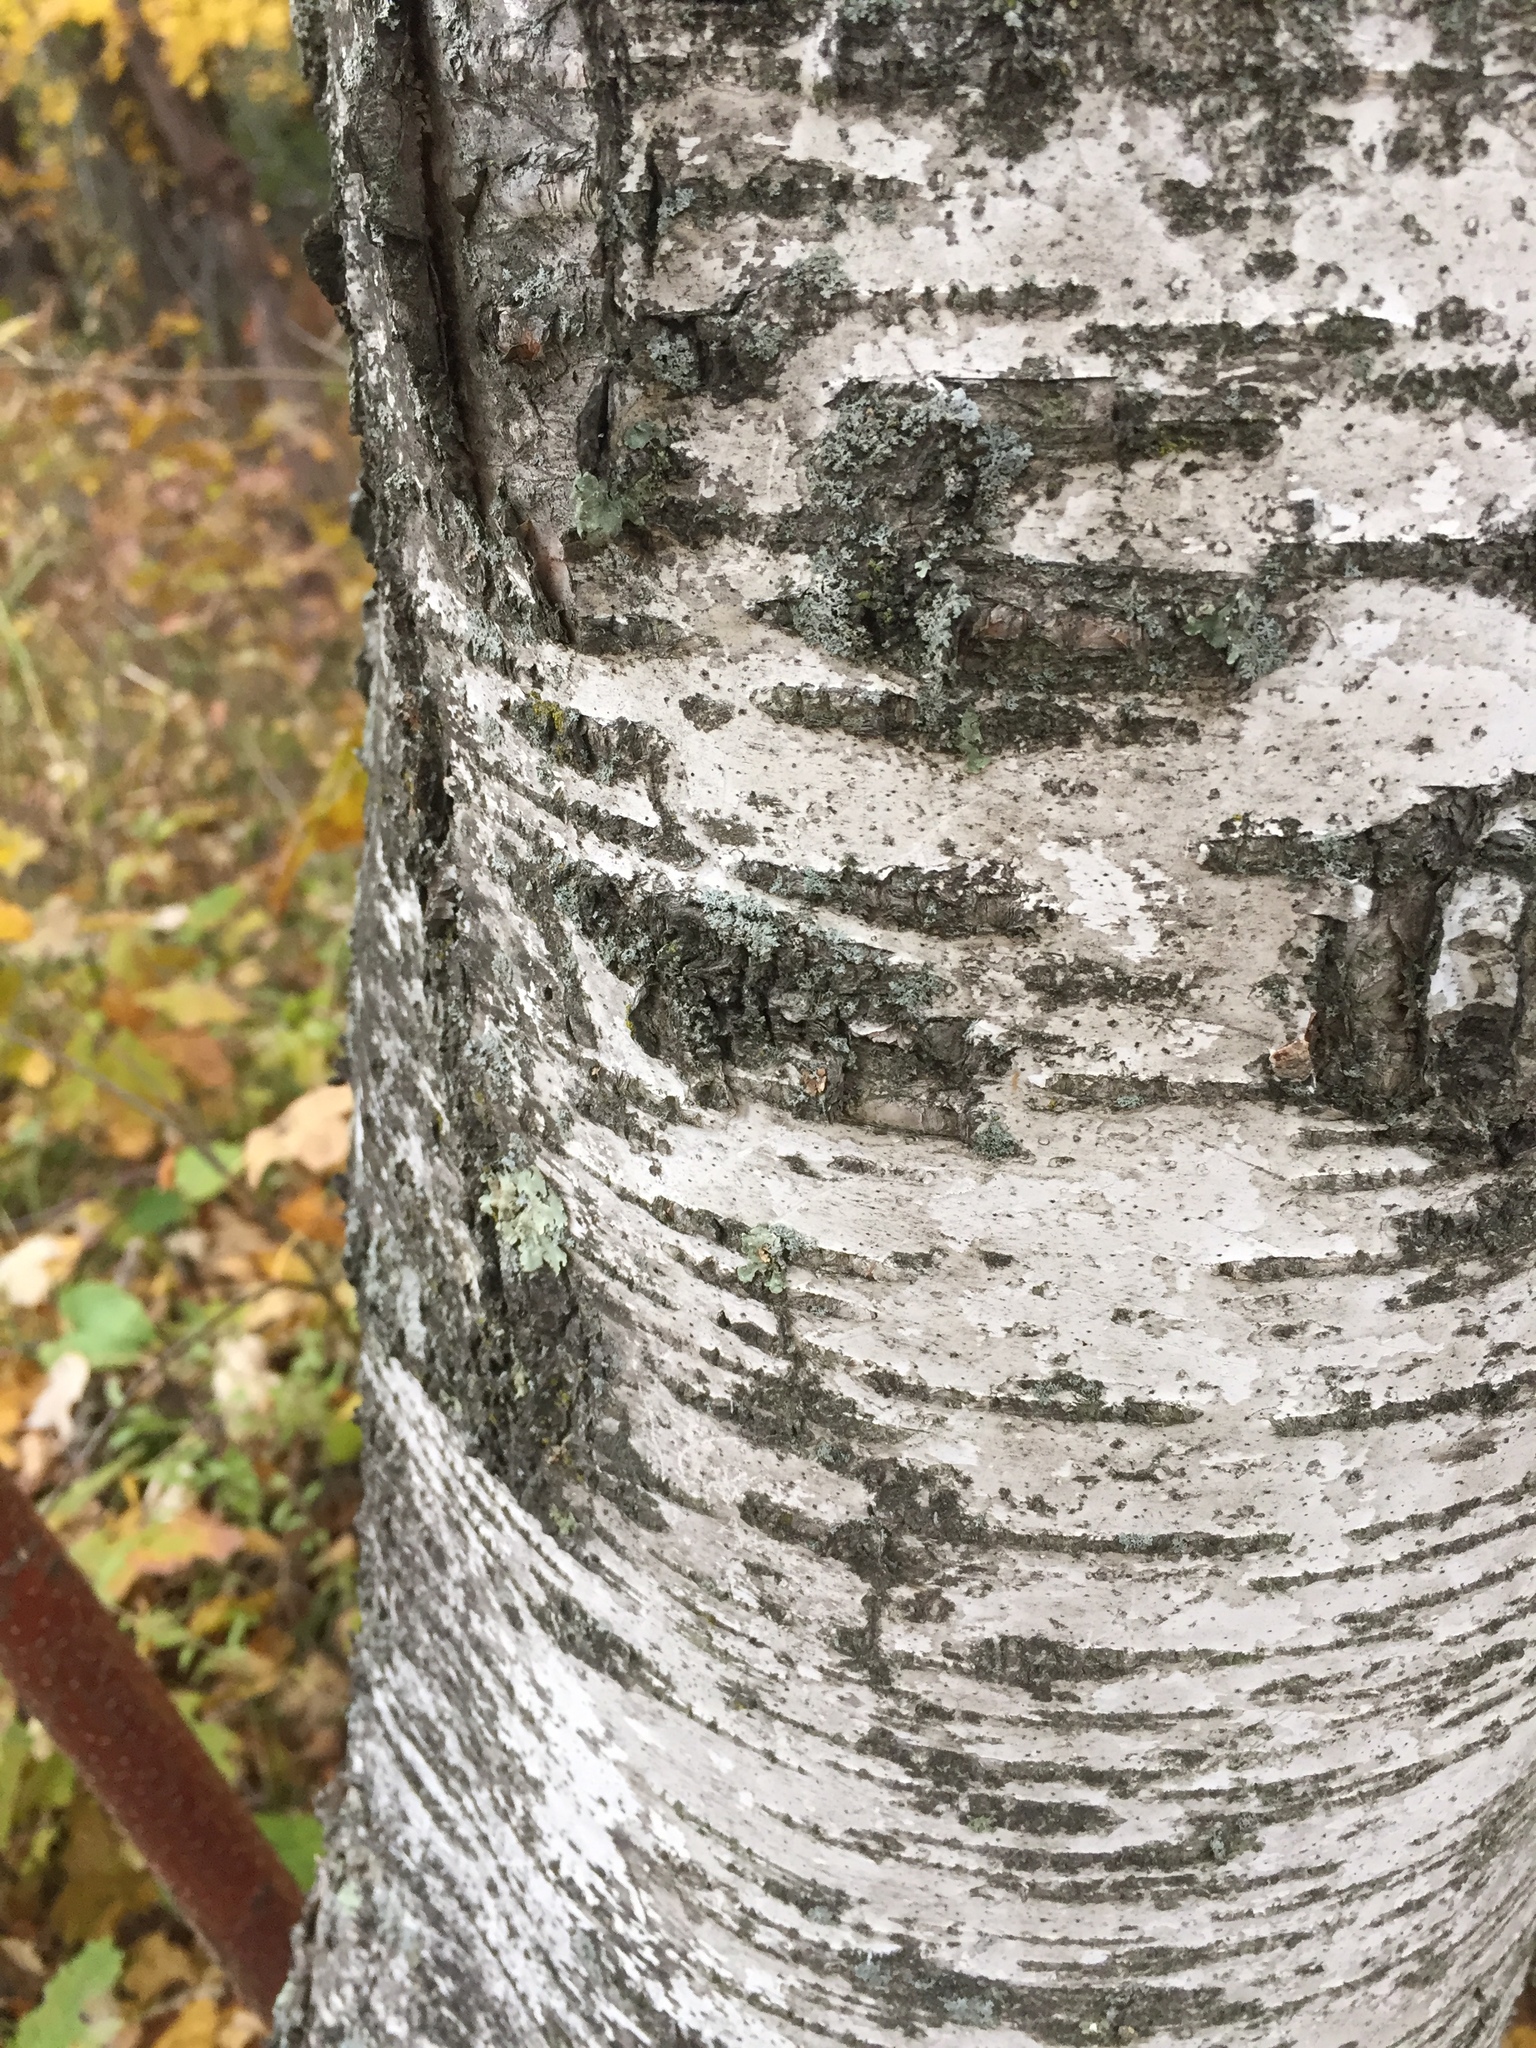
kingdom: Plantae
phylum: Tracheophyta
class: Magnoliopsida
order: Fagales
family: Betulaceae
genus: Betula
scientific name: Betula papyrifera
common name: Paper birch
